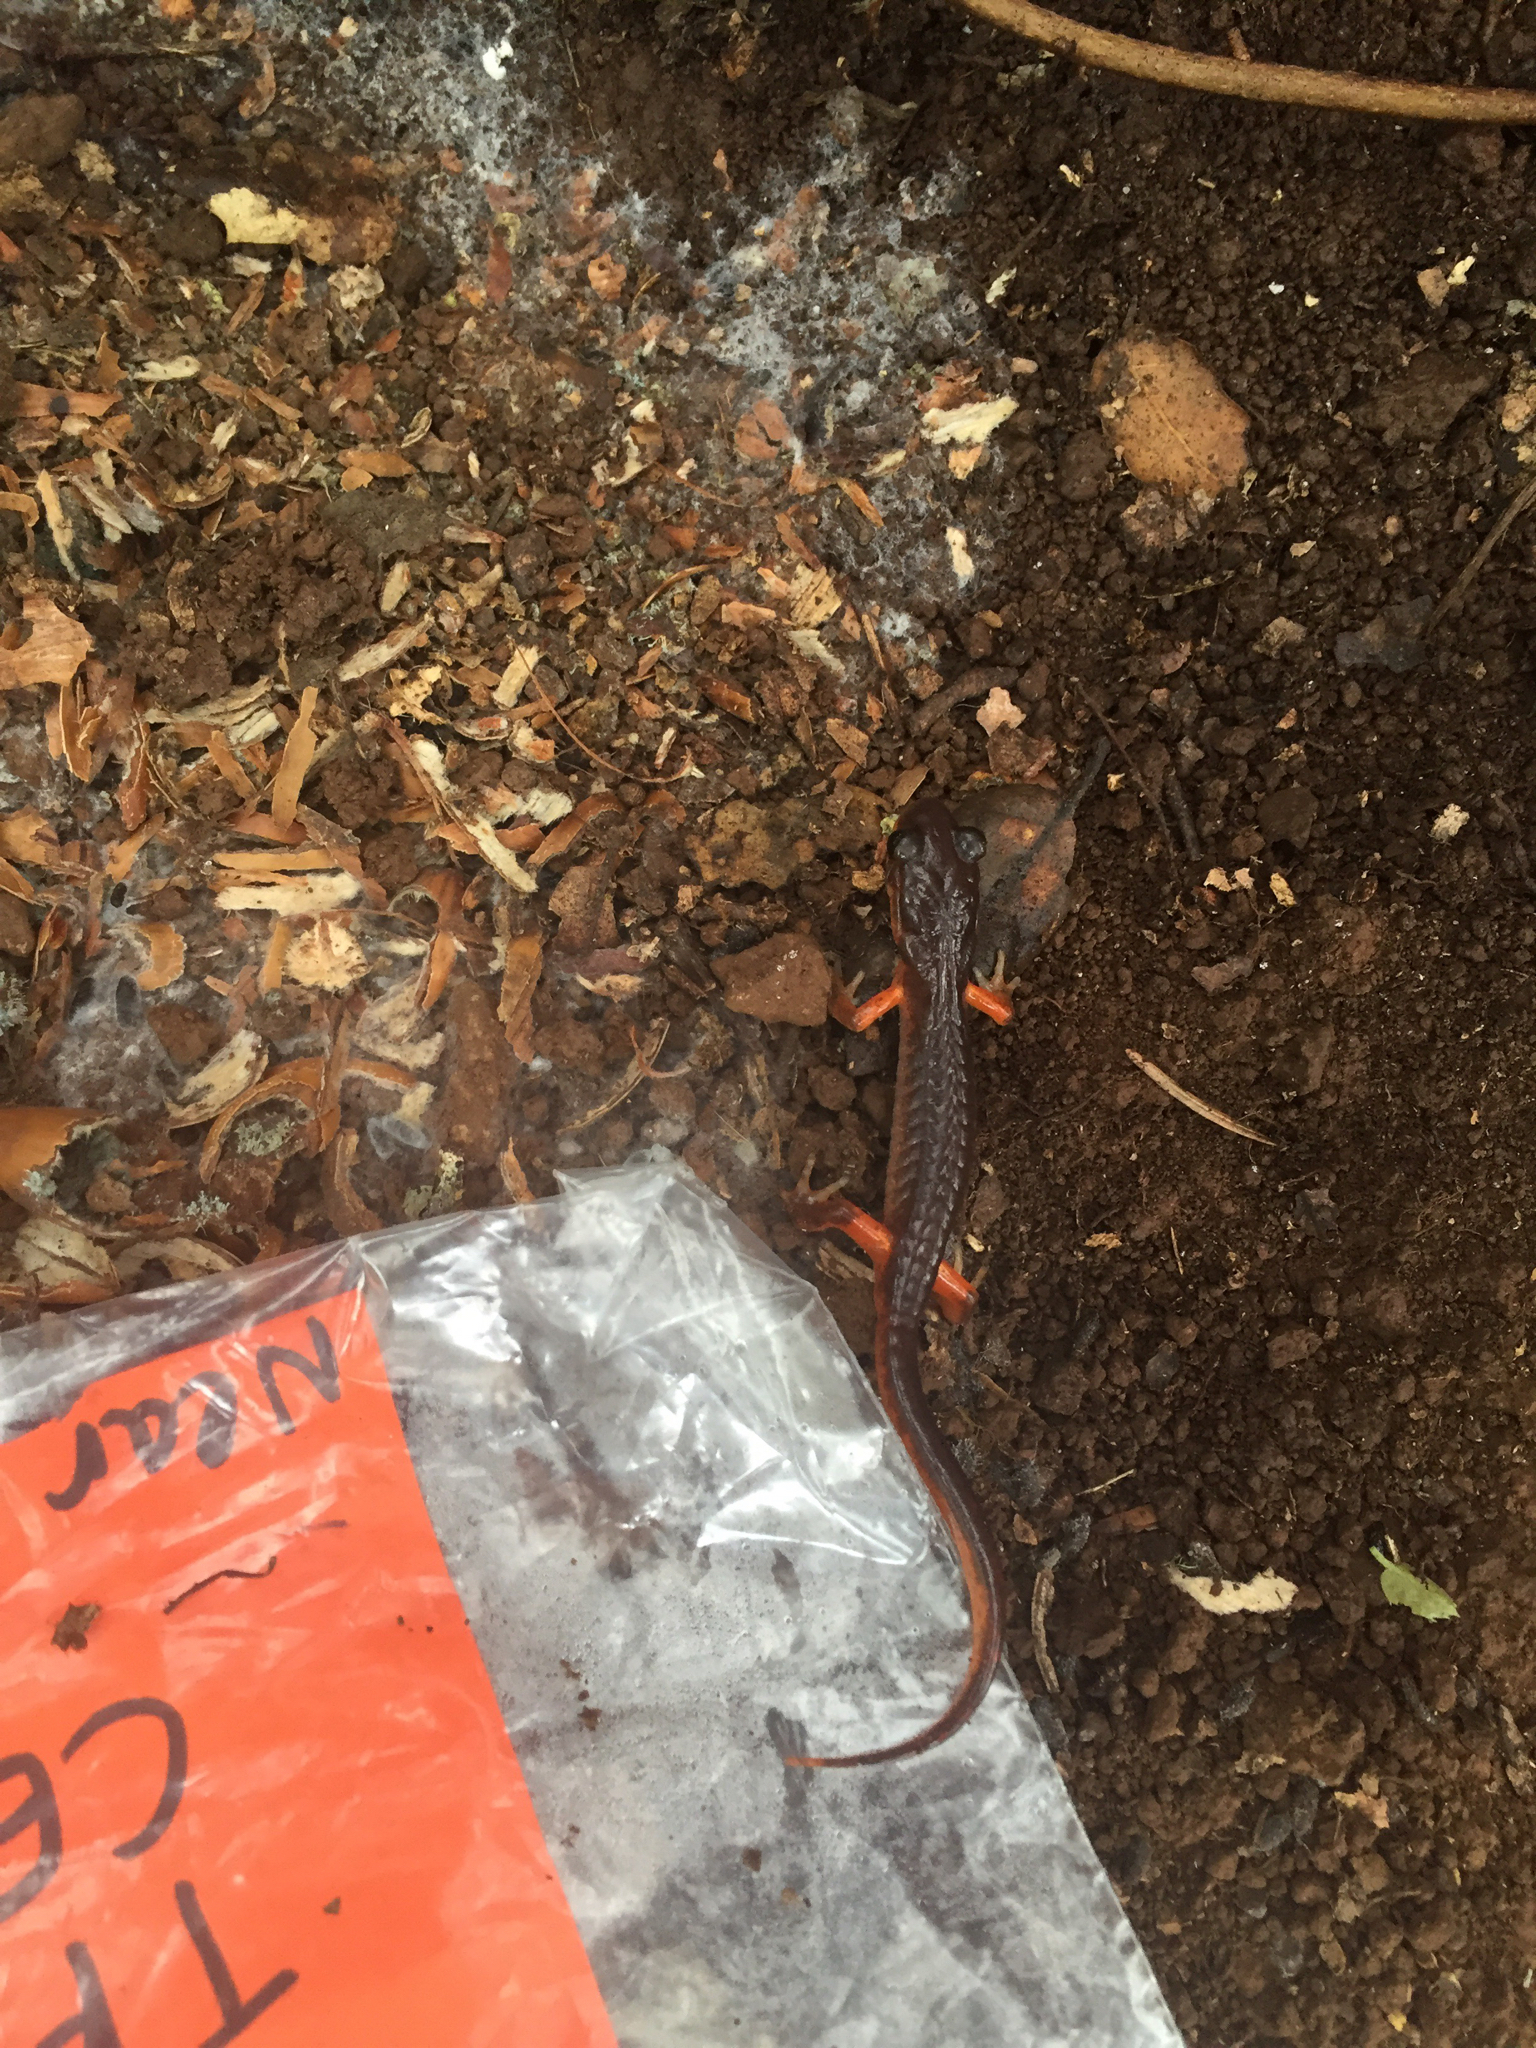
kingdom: Animalia
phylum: Chordata
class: Amphibia
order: Caudata
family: Plethodontidae
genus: Ensatina
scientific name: Ensatina eschscholtzii
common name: Ensatina
